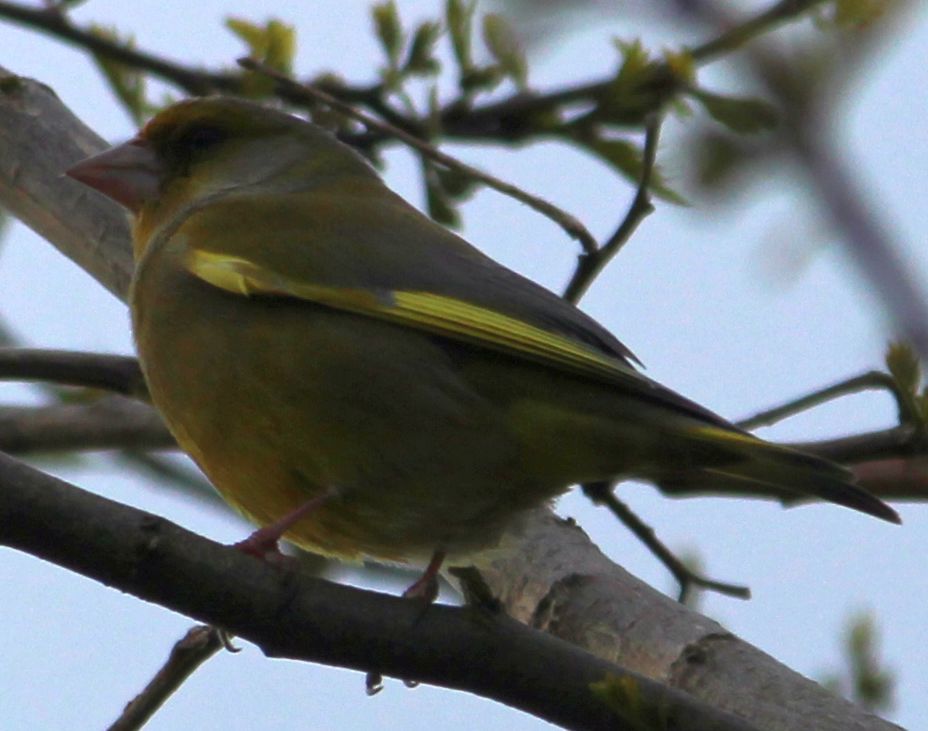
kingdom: Plantae
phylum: Tracheophyta
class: Liliopsida
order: Poales
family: Poaceae
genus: Chloris
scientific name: Chloris chloris
